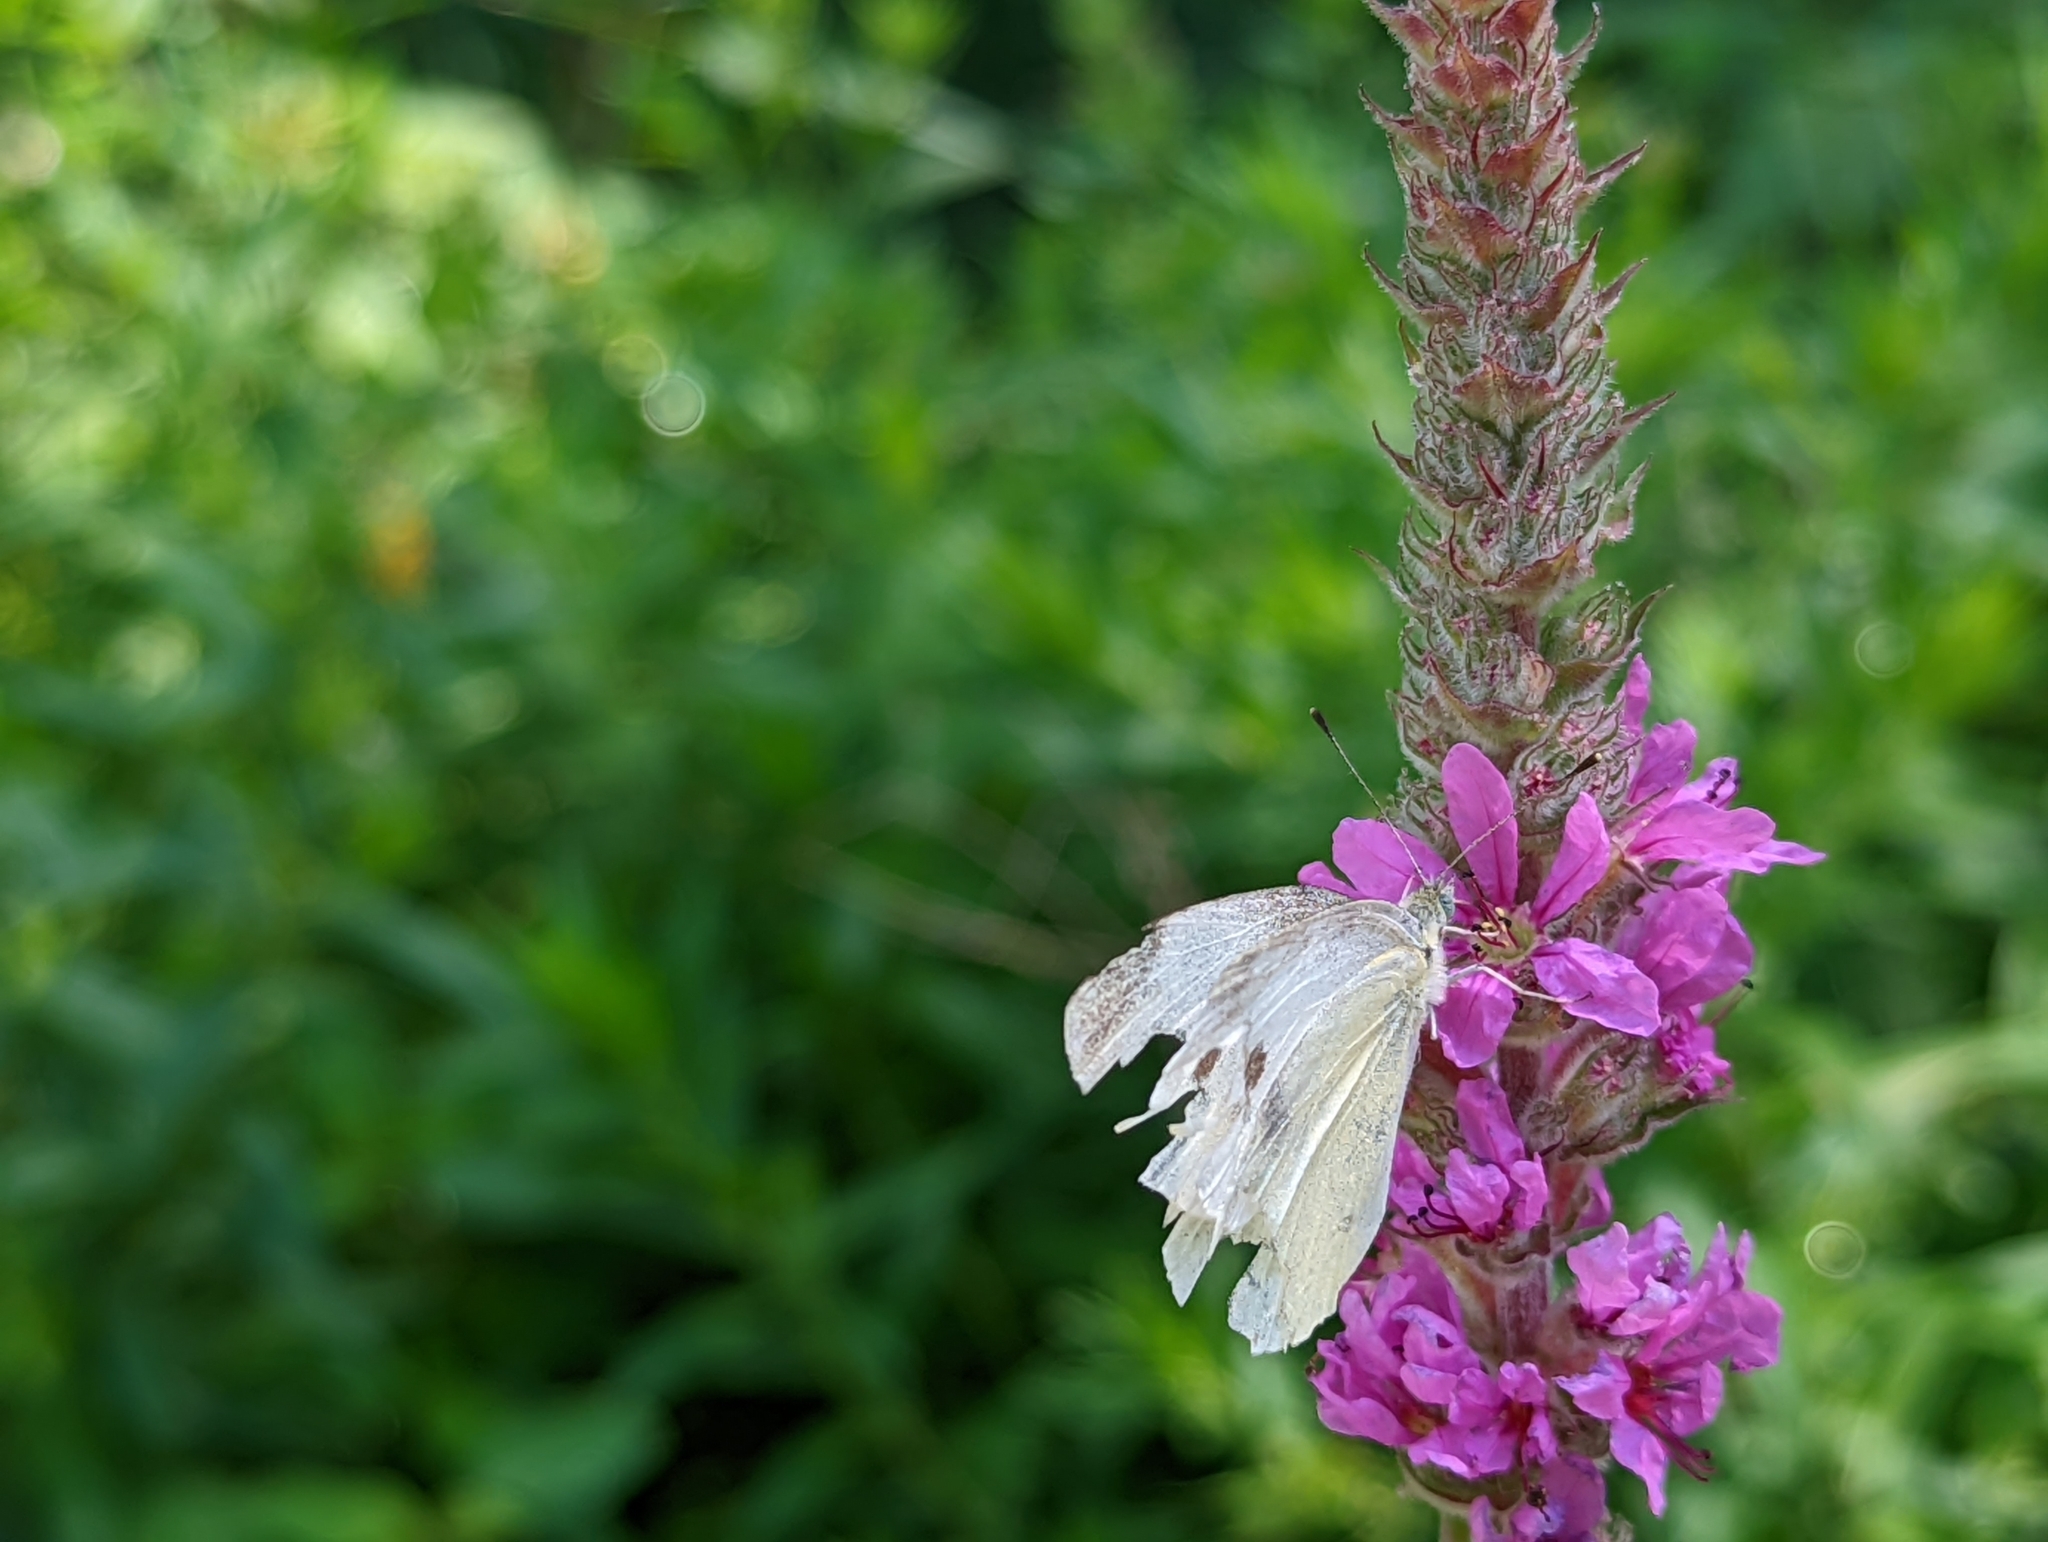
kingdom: Animalia
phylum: Arthropoda
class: Insecta
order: Lepidoptera
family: Pieridae
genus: Pieris
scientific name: Pieris rapae
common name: Small white
